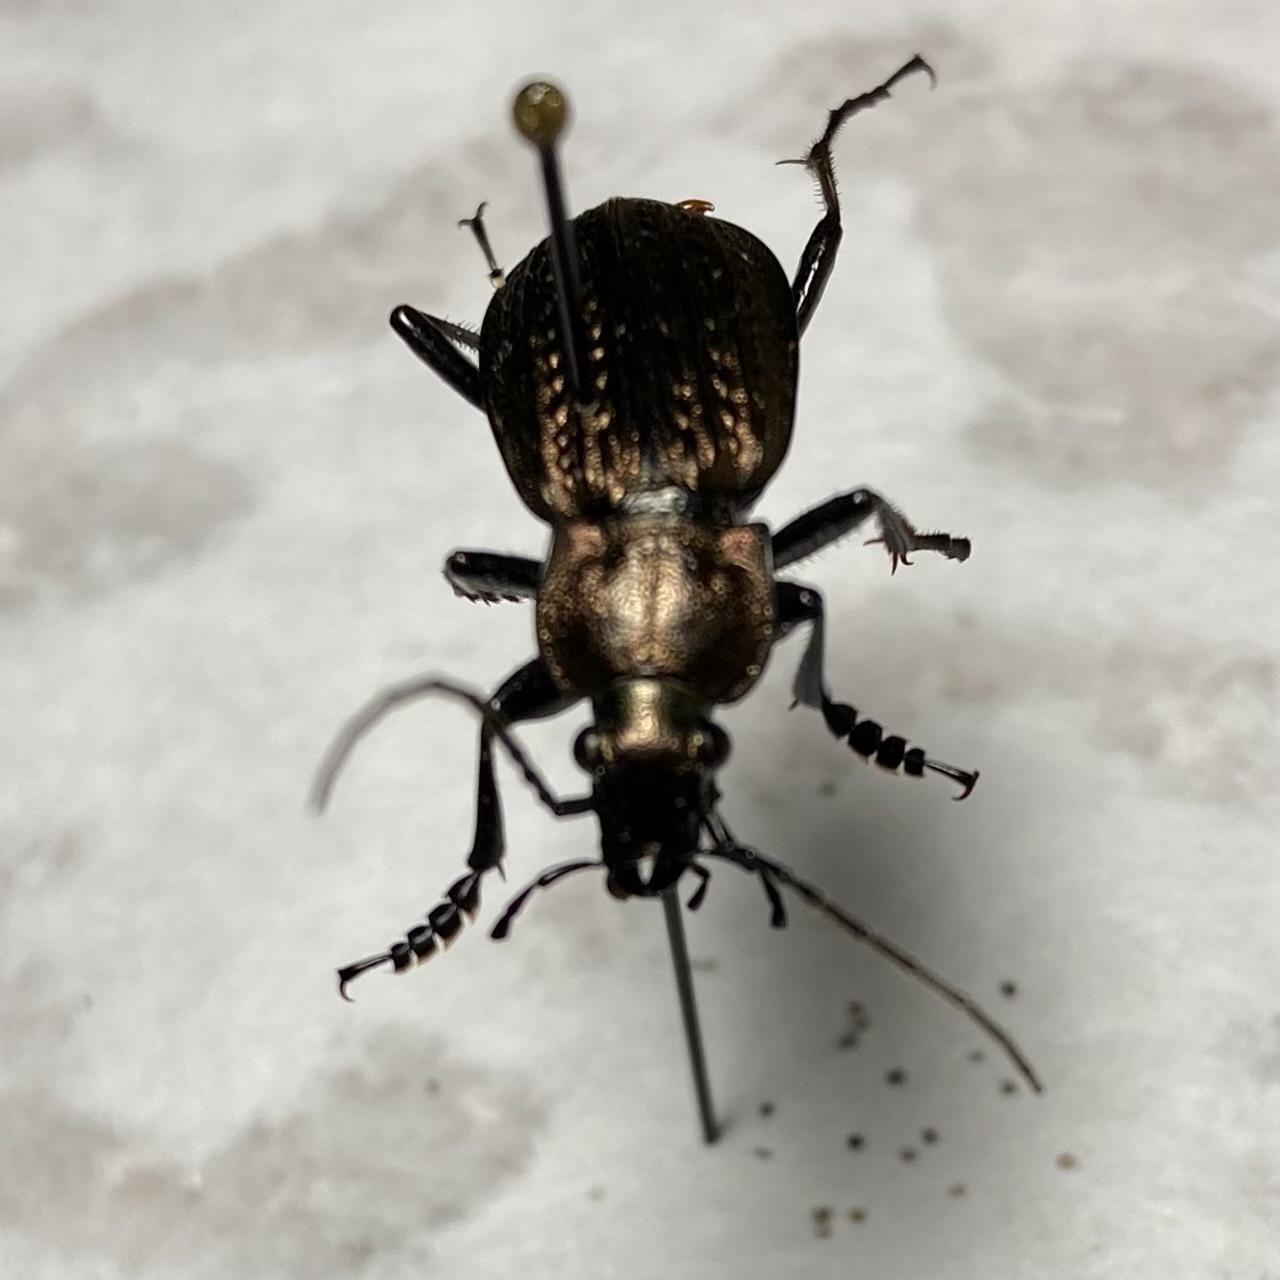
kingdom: Animalia
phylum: Arthropoda
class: Insecta
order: Coleoptera
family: Carabidae
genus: Carabus
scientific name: Carabus granulatus
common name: Granulate ground beetle
